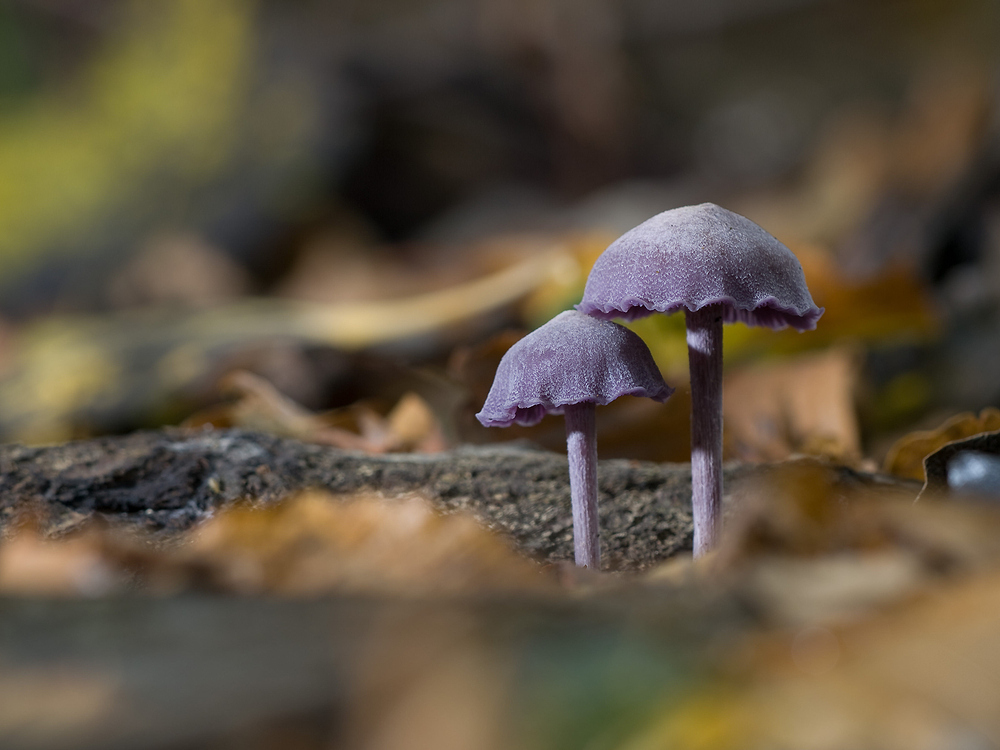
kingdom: Fungi
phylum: Basidiomycota
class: Agaricomycetes
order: Agaricales
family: Hydnangiaceae
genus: Laccaria
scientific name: Laccaria amethystina
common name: Amethyst deceiver
